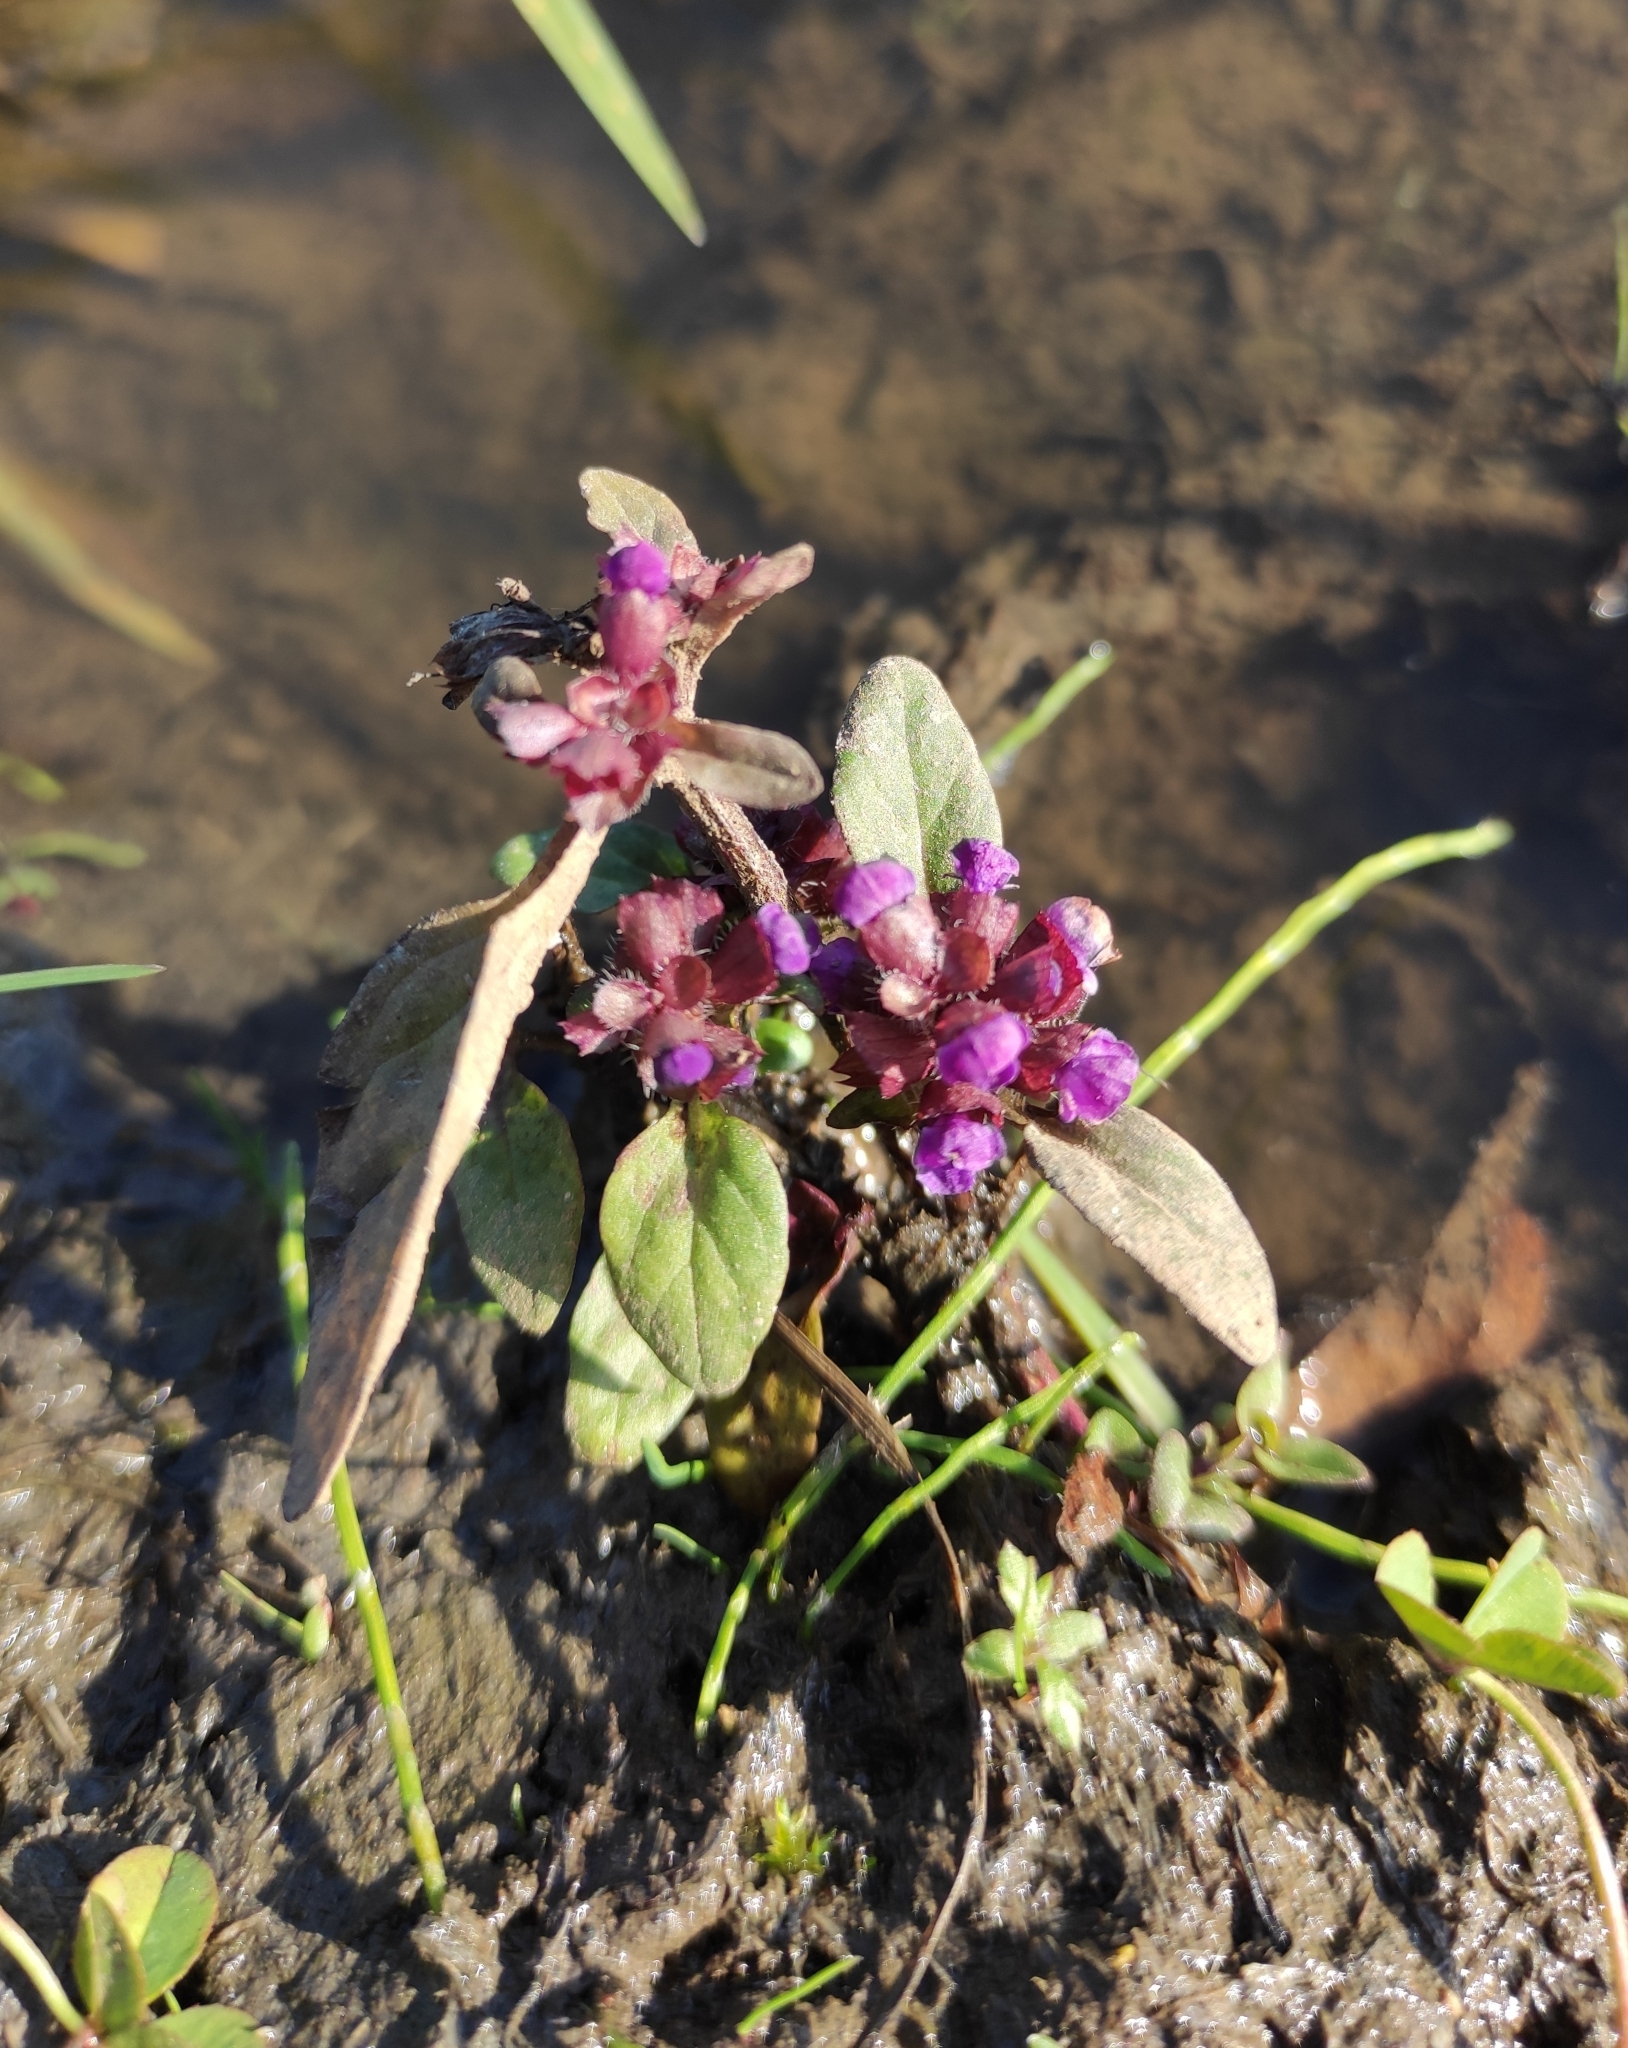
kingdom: Plantae
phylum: Tracheophyta
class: Magnoliopsida
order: Lamiales
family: Lamiaceae
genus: Prunella
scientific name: Prunella vulgaris
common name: Heal-all
